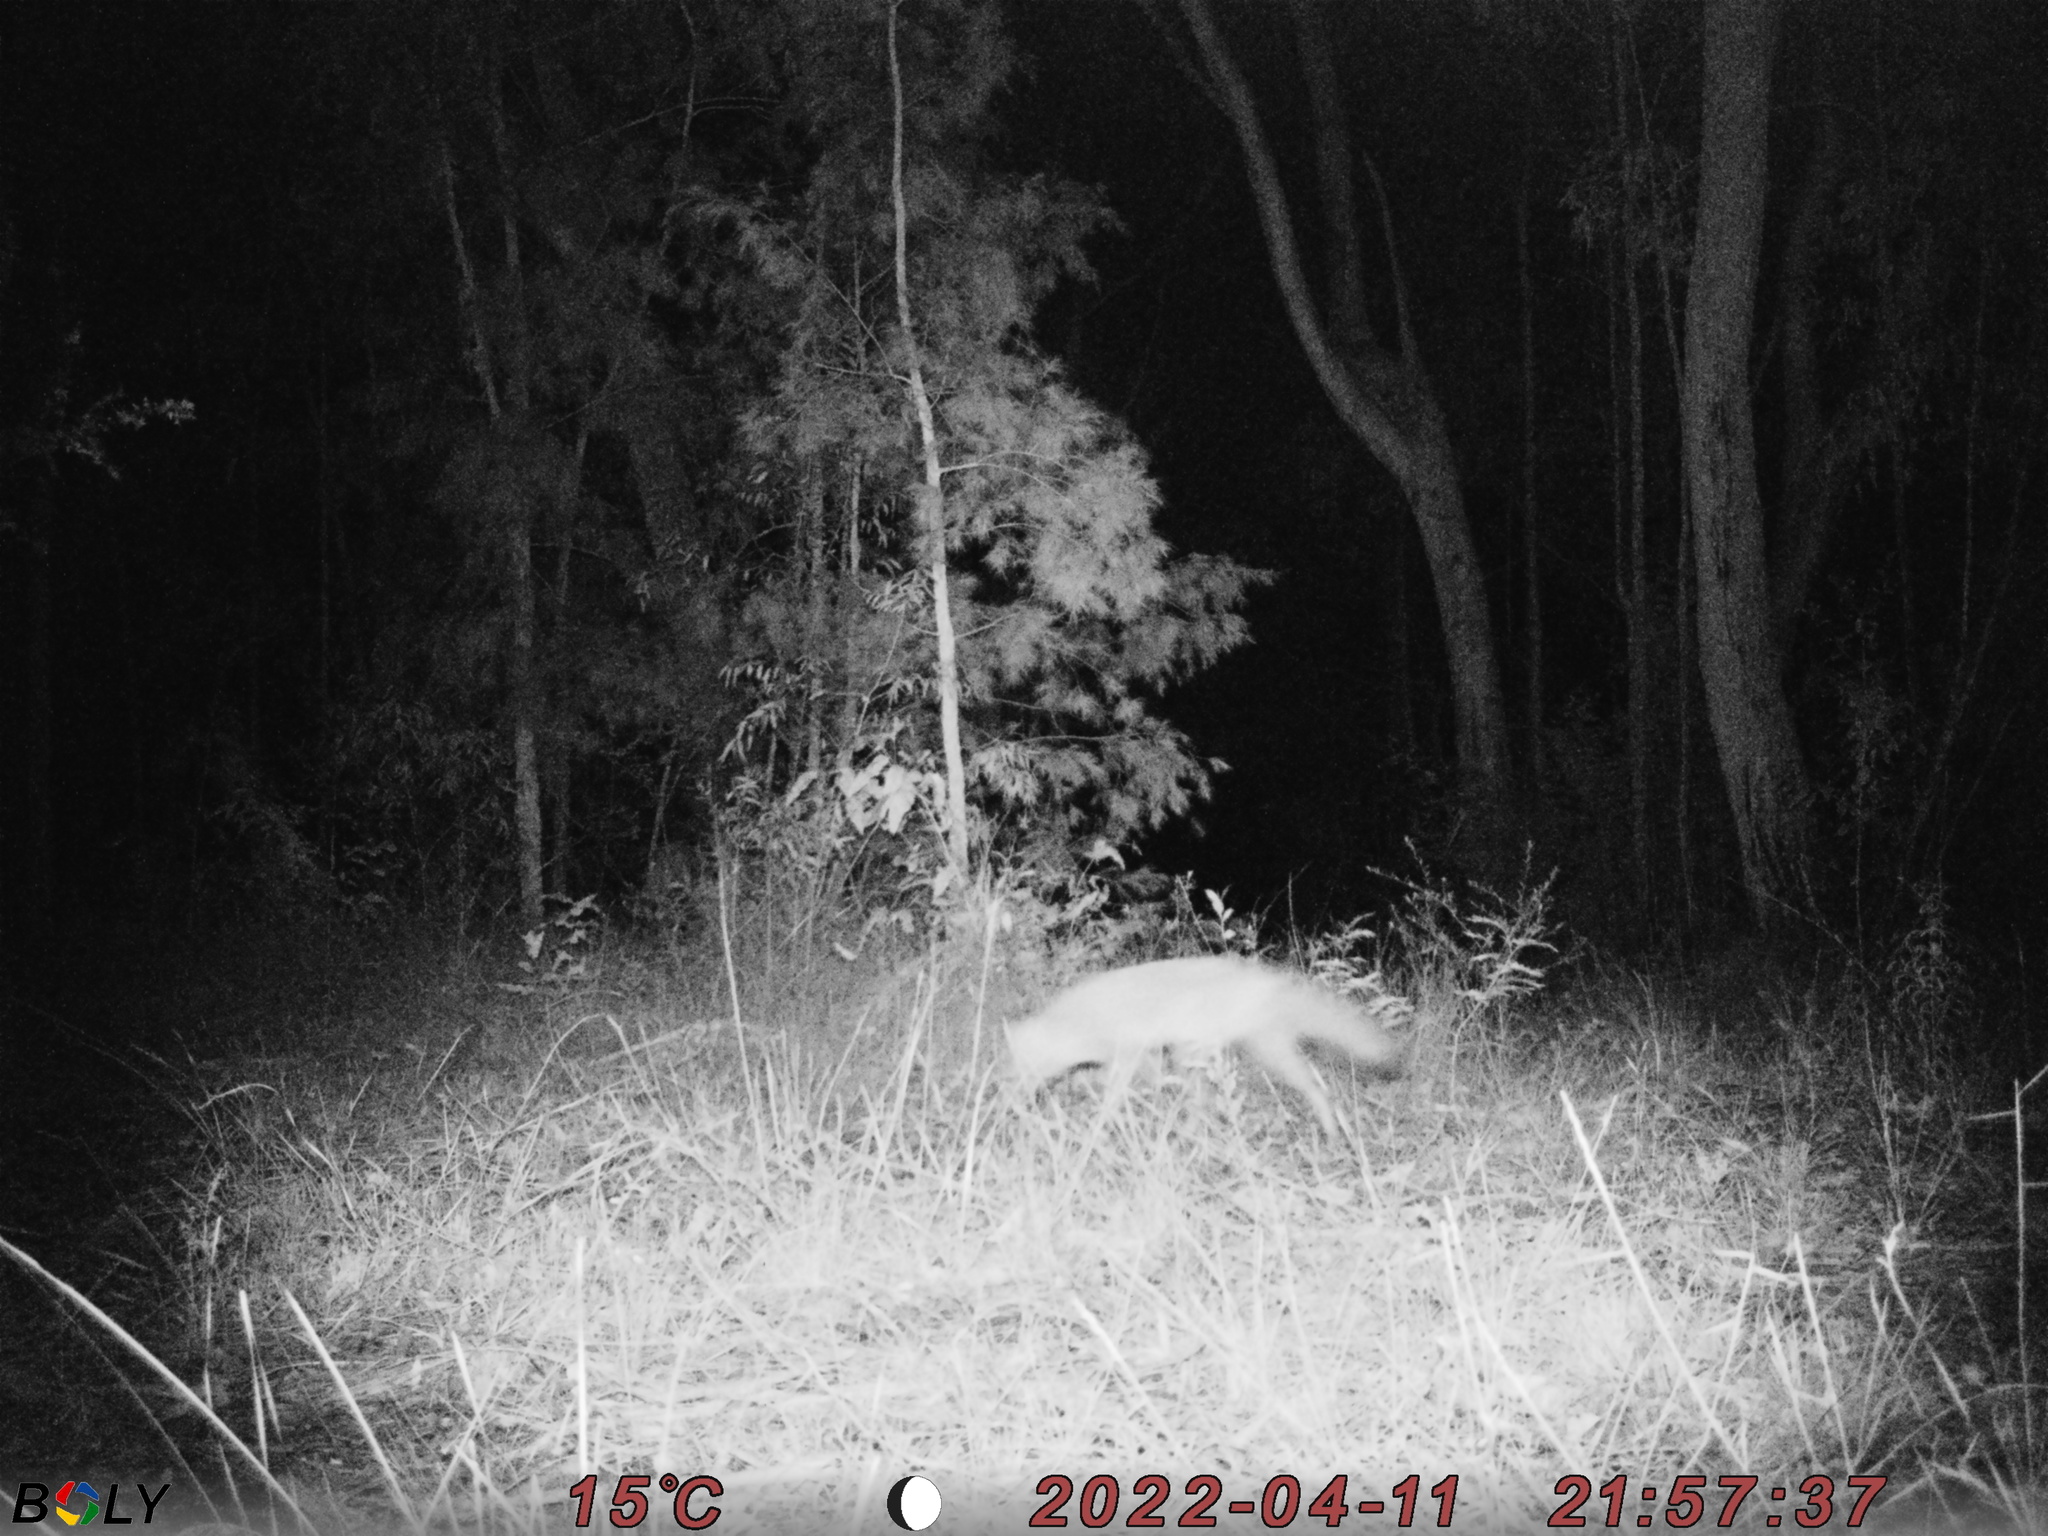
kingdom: Animalia
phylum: Chordata
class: Mammalia
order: Carnivora
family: Canidae
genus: Vulpes
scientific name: Vulpes vulpes
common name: Red fox
